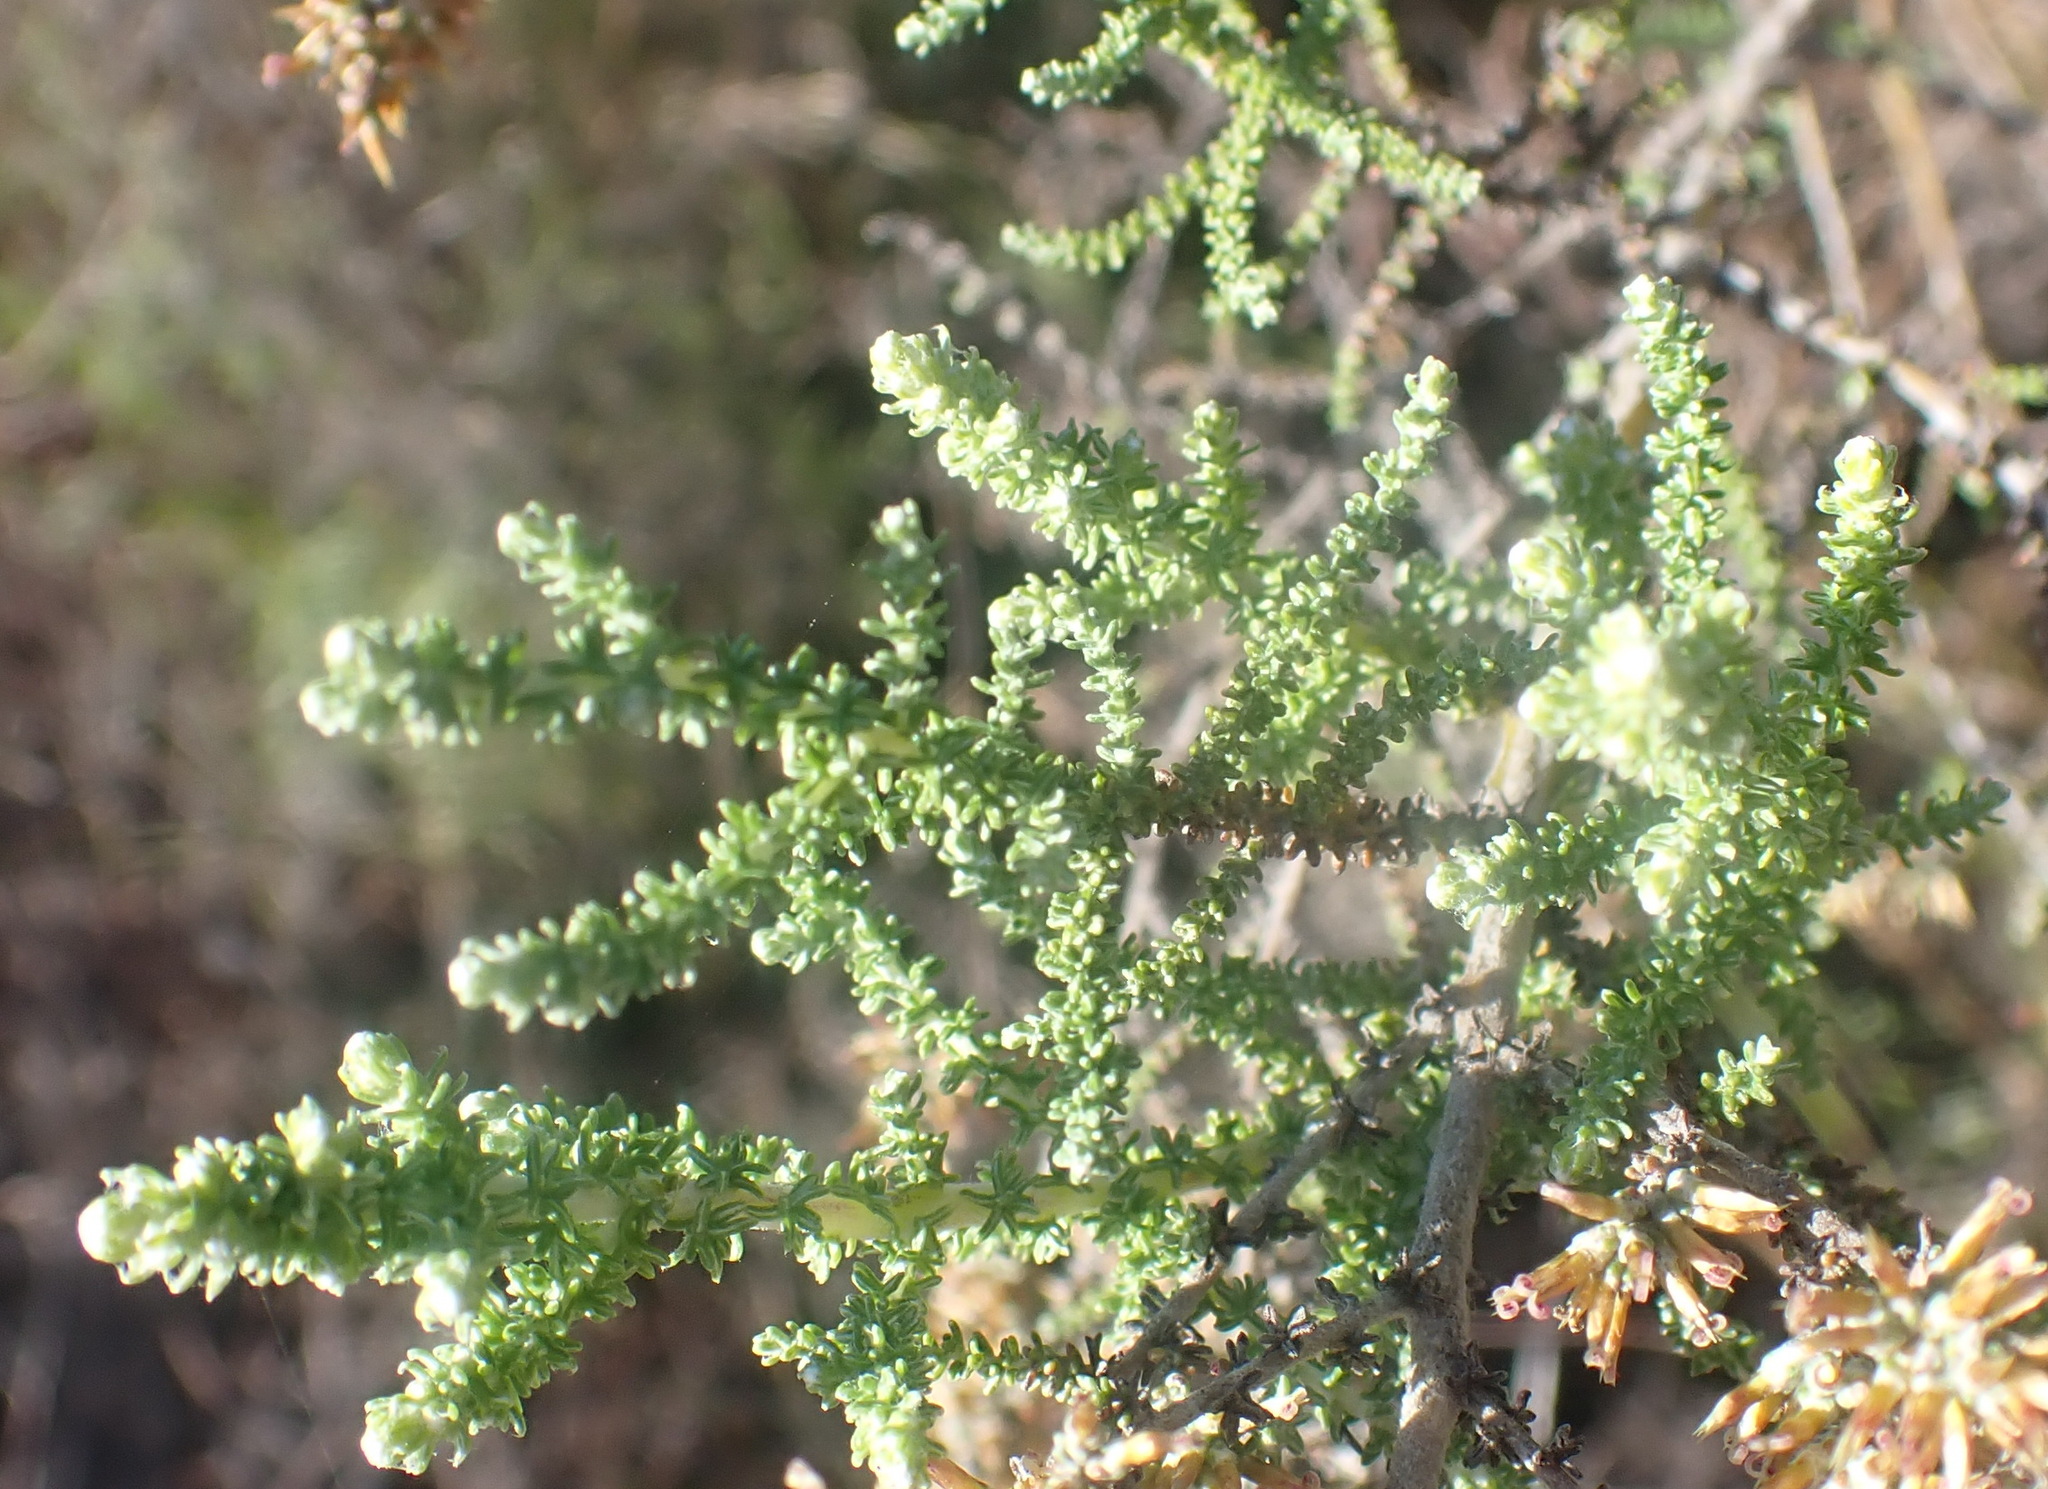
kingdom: Plantae
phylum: Tracheophyta
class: Magnoliopsida
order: Asterales
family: Asteraceae
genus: Seriphium
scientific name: Seriphium plumosum
